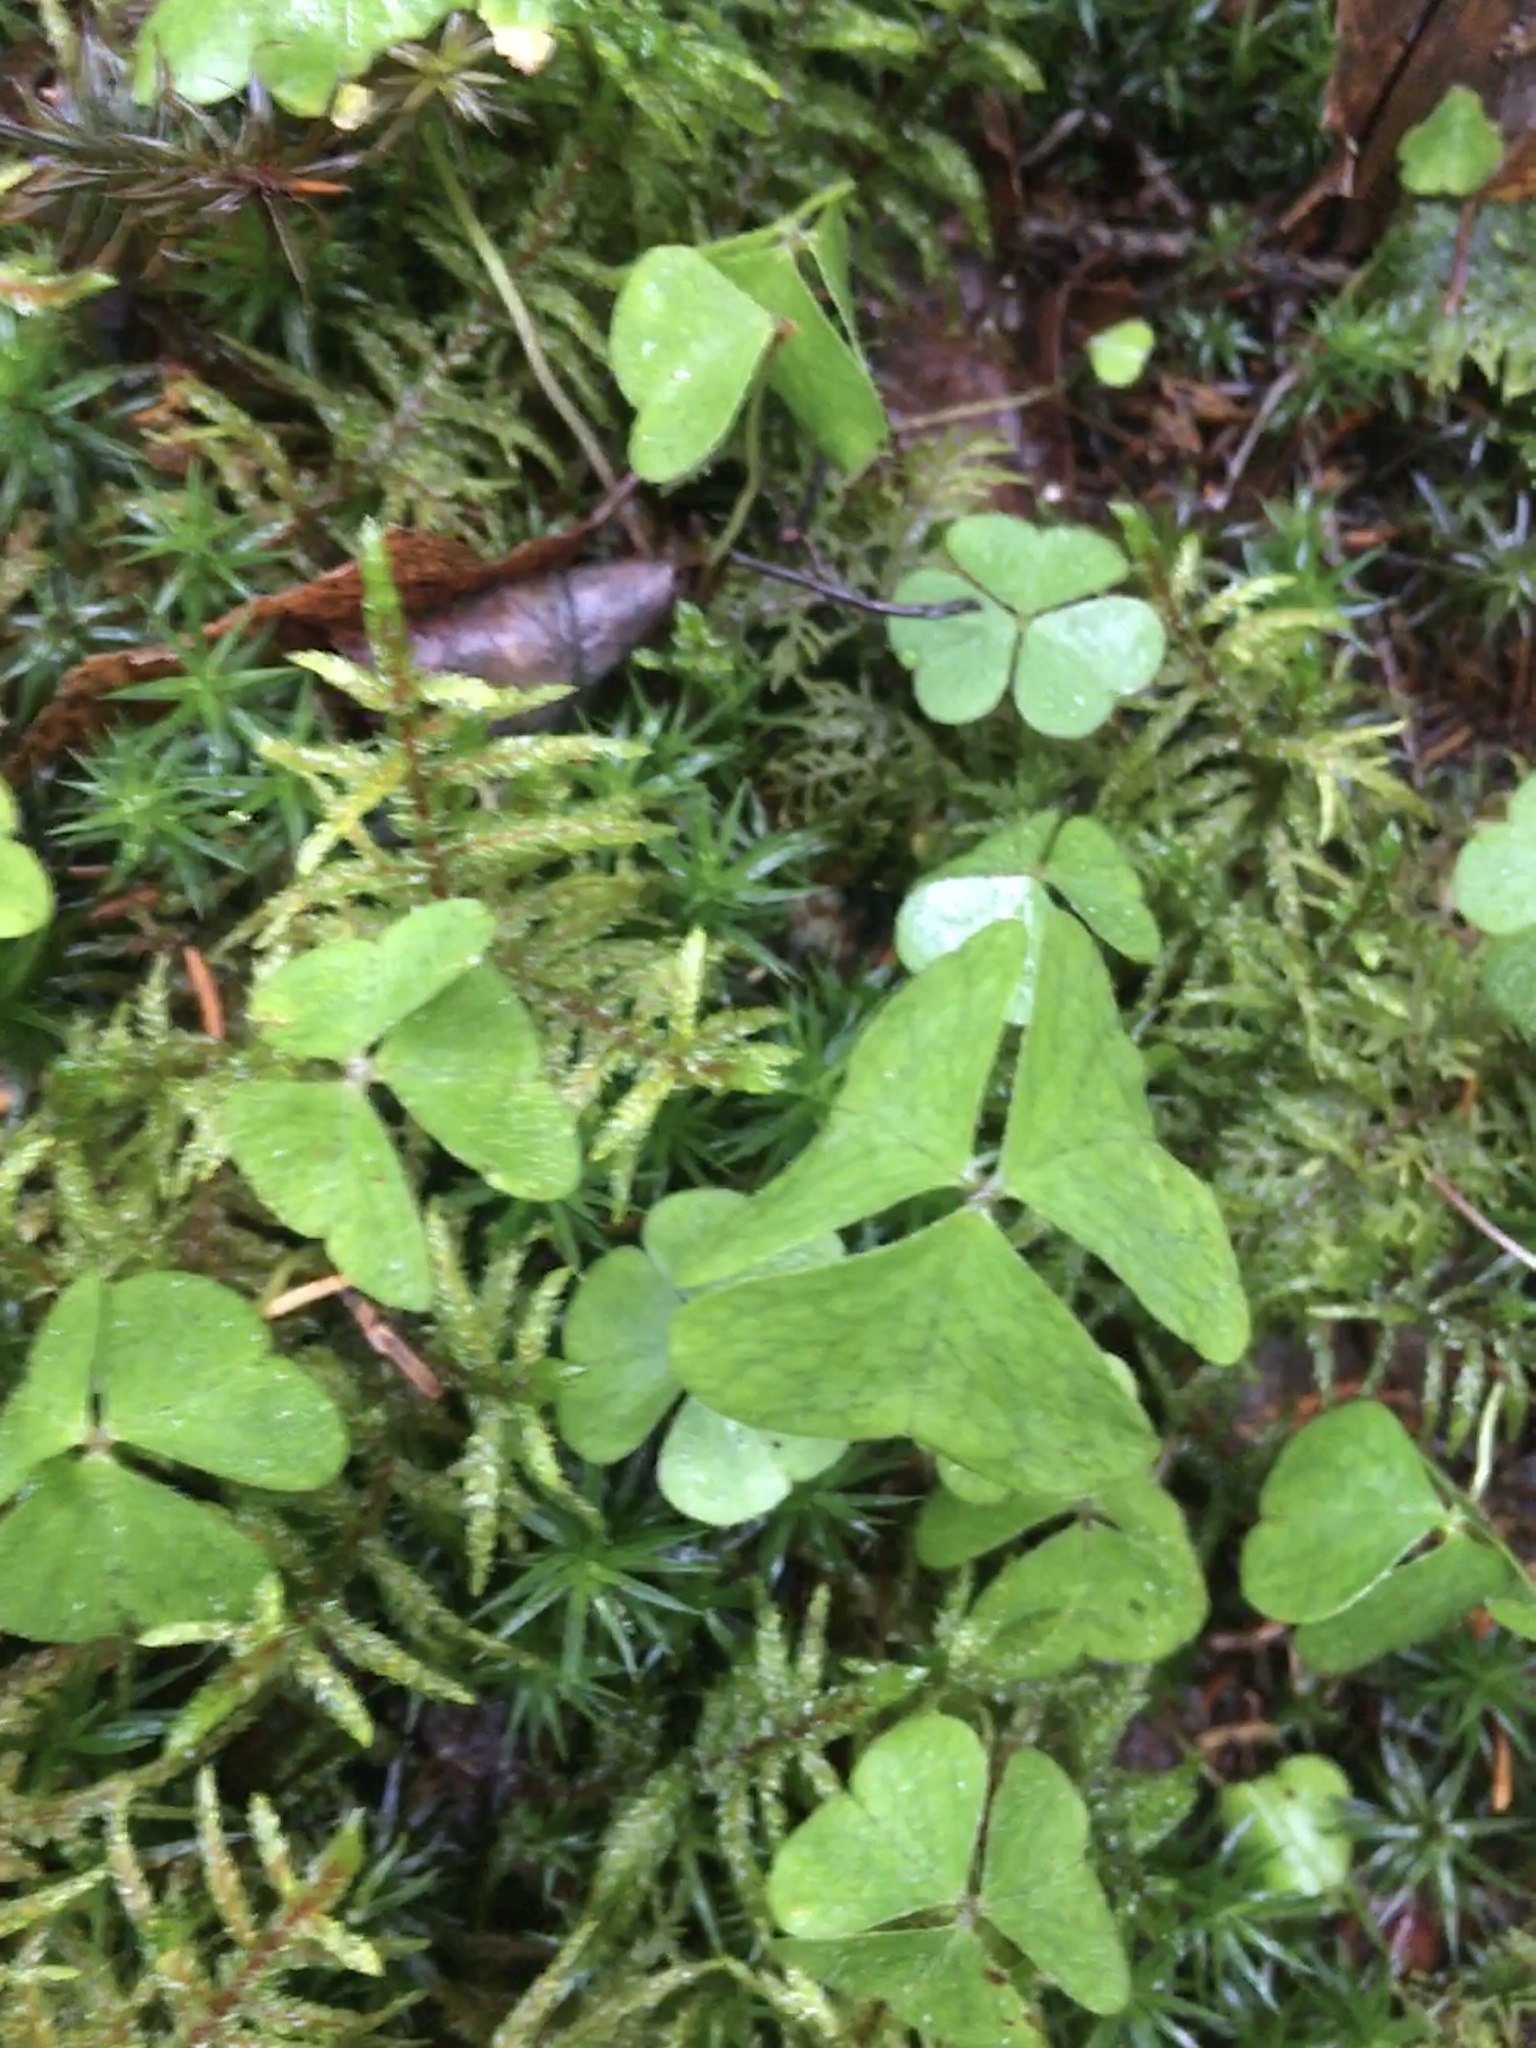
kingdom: Plantae
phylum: Tracheophyta
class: Magnoliopsida
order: Oxalidales
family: Oxalidaceae
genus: Oxalis
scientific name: Oxalis acetosella
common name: Wood-sorrel
